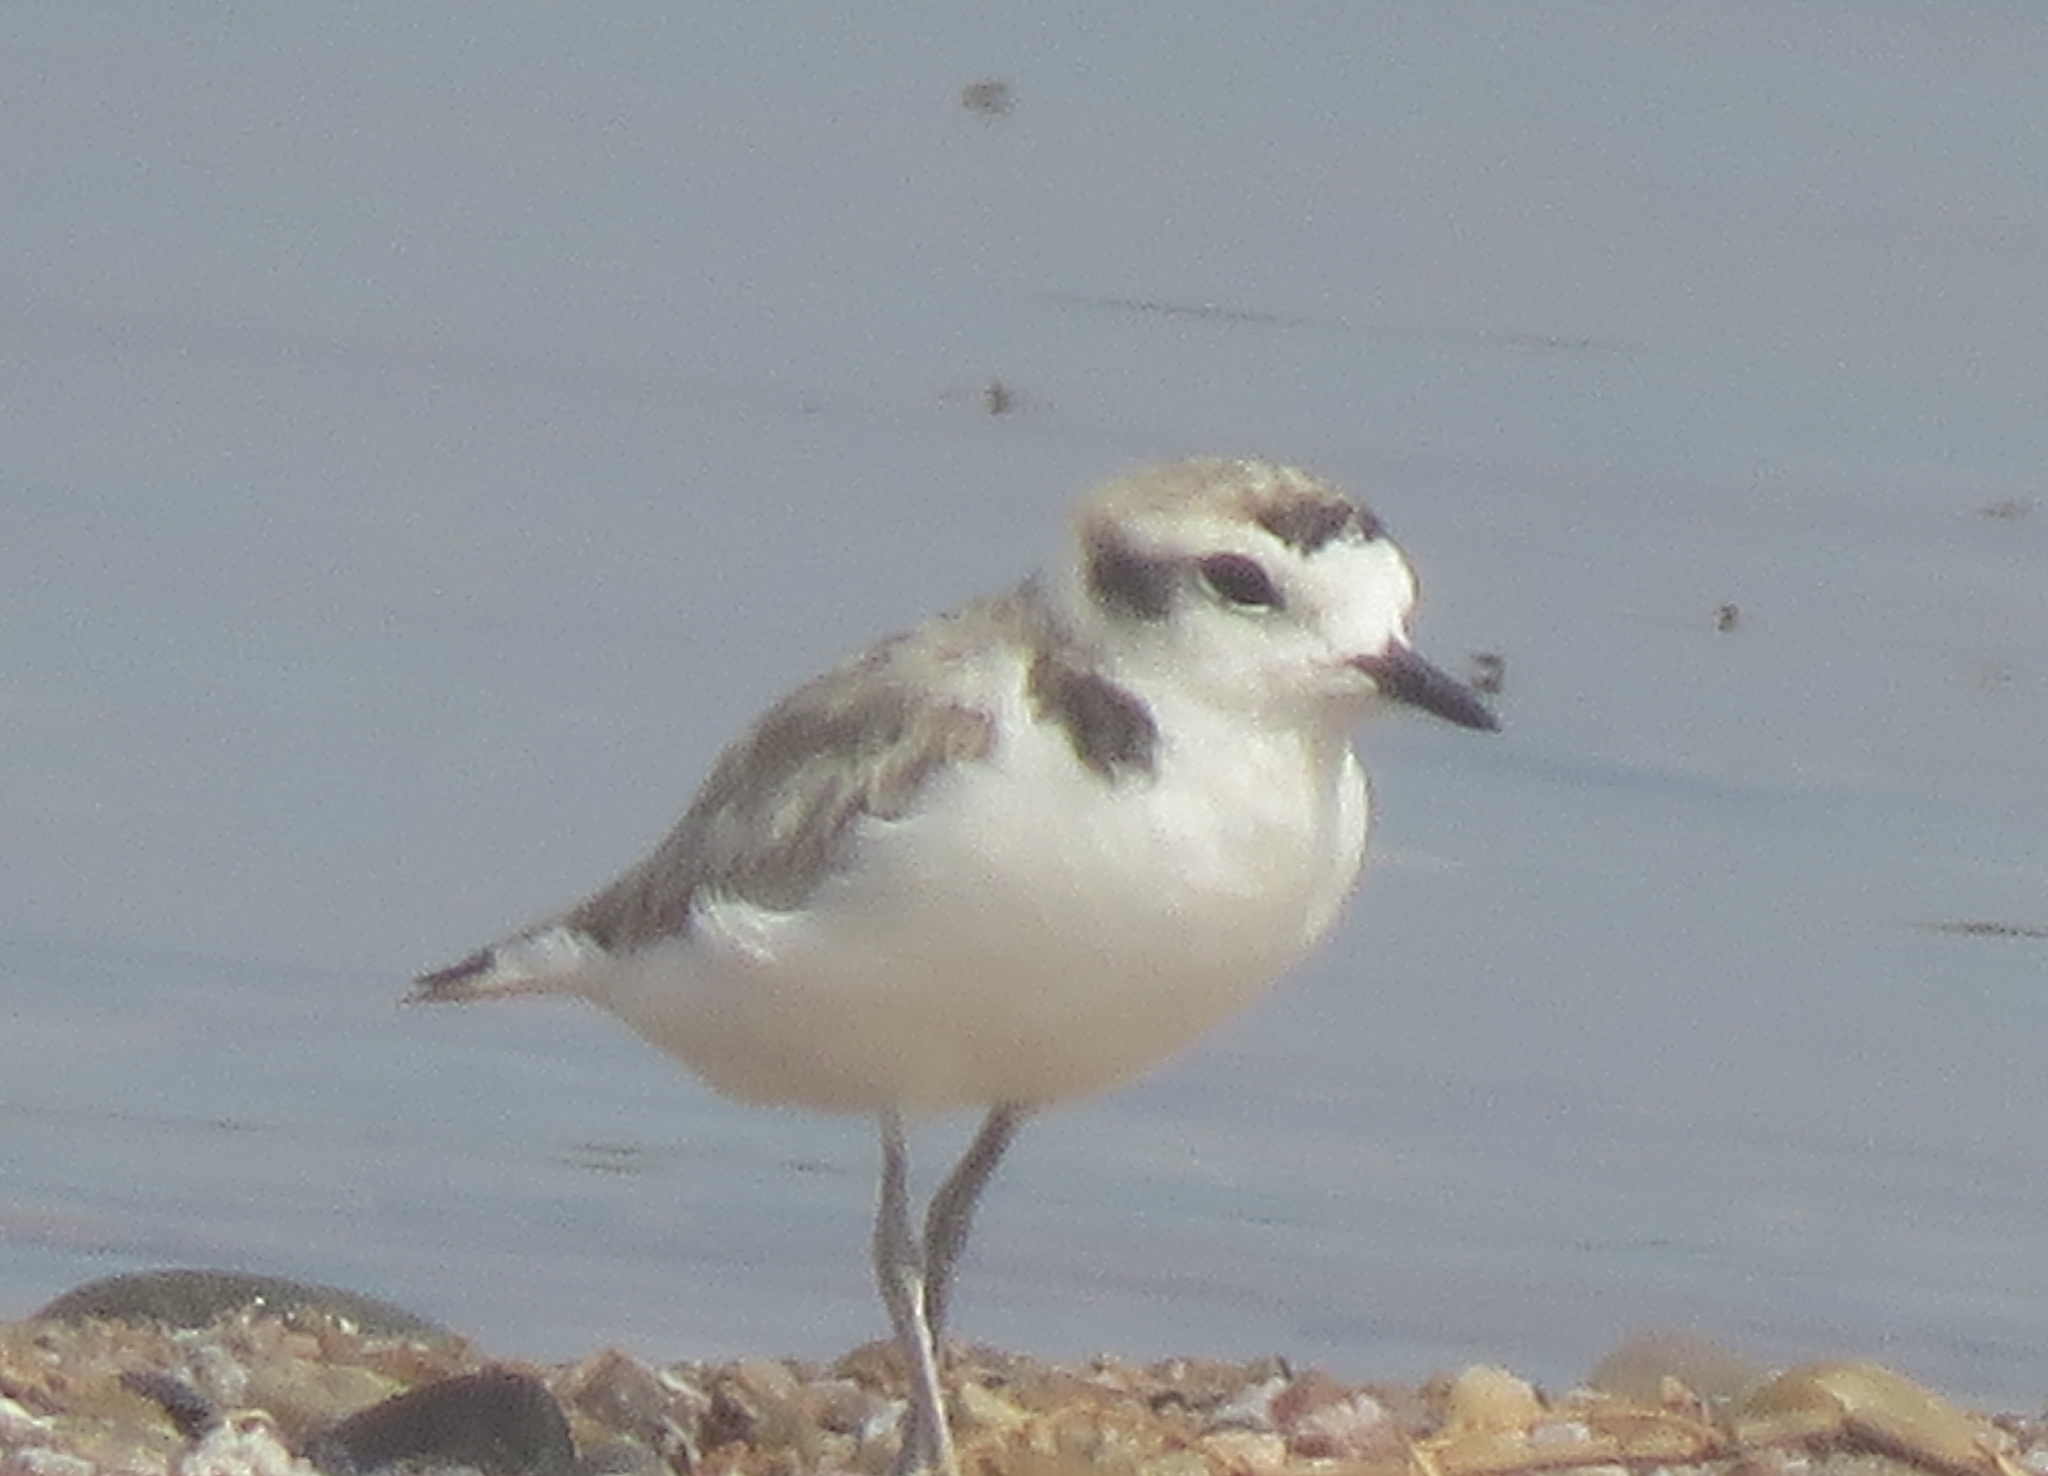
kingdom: Animalia
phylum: Chordata
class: Aves
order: Charadriiformes
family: Charadriidae
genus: Anarhynchus
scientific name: Anarhynchus
